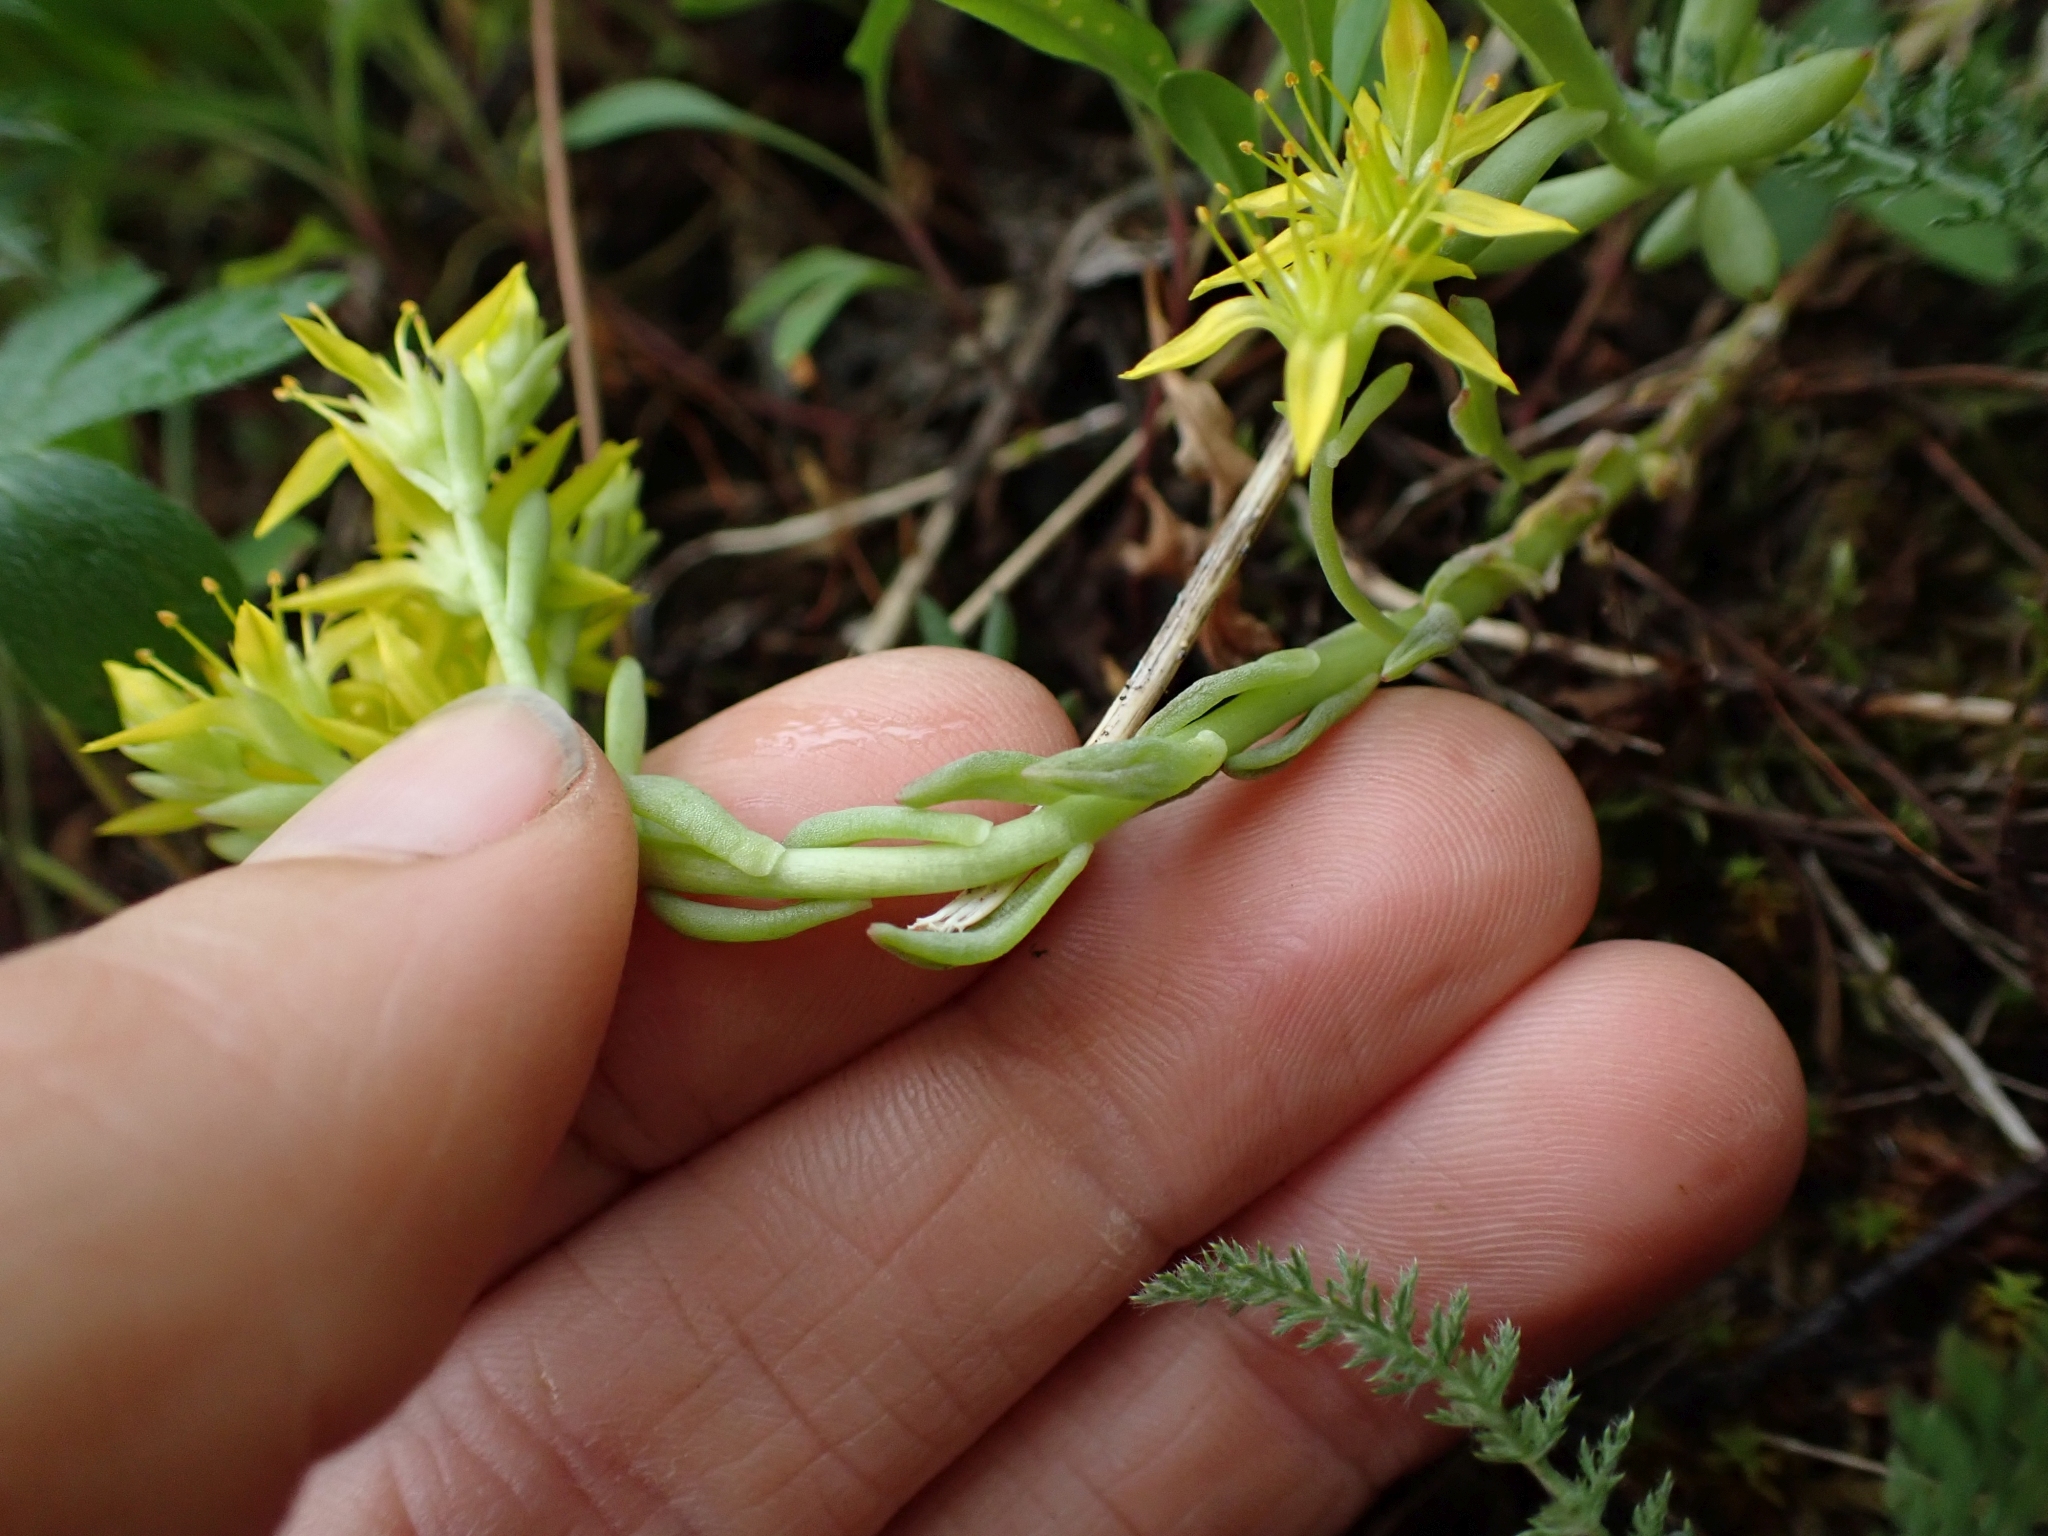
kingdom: Plantae
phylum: Tracheophyta
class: Magnoliopsida
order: Saxifragales
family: Crassulaceae
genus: Sedum
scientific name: Sedum lanceolatum
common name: Common stonecrop
